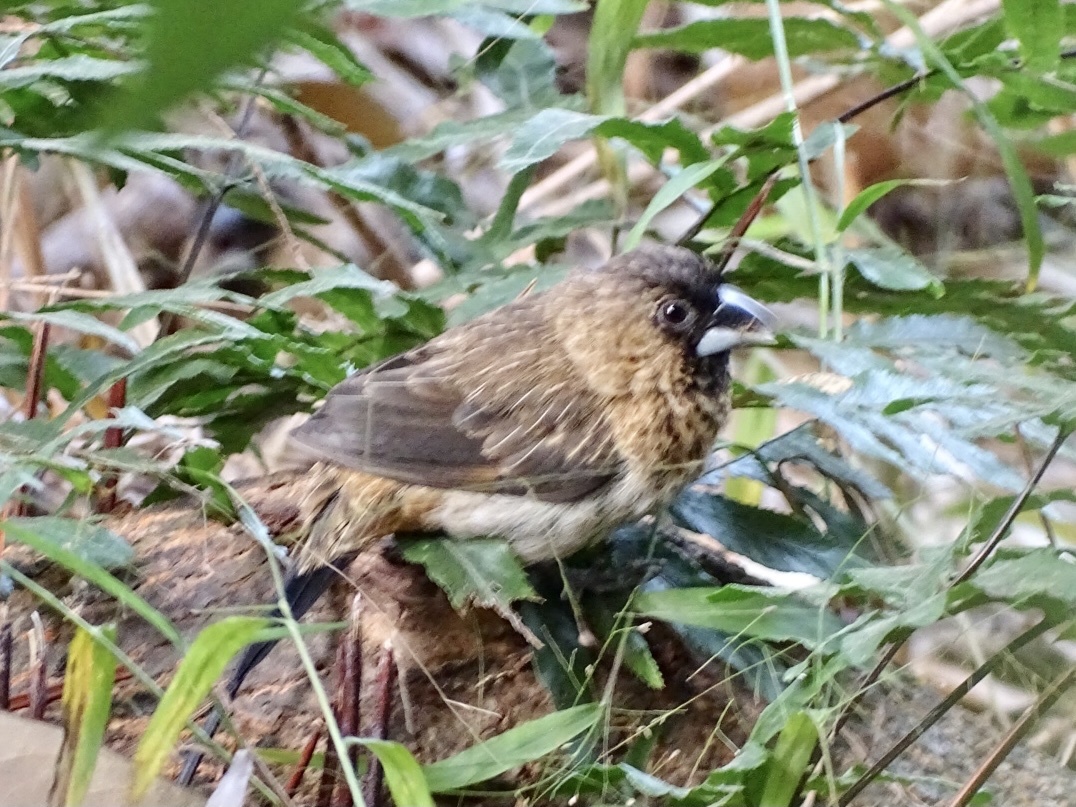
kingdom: Animalia
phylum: Chordata
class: Aves
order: Passeriformes
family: Estrildidae
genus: Lonchura
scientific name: Lonchura striata
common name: White-rumped munia
